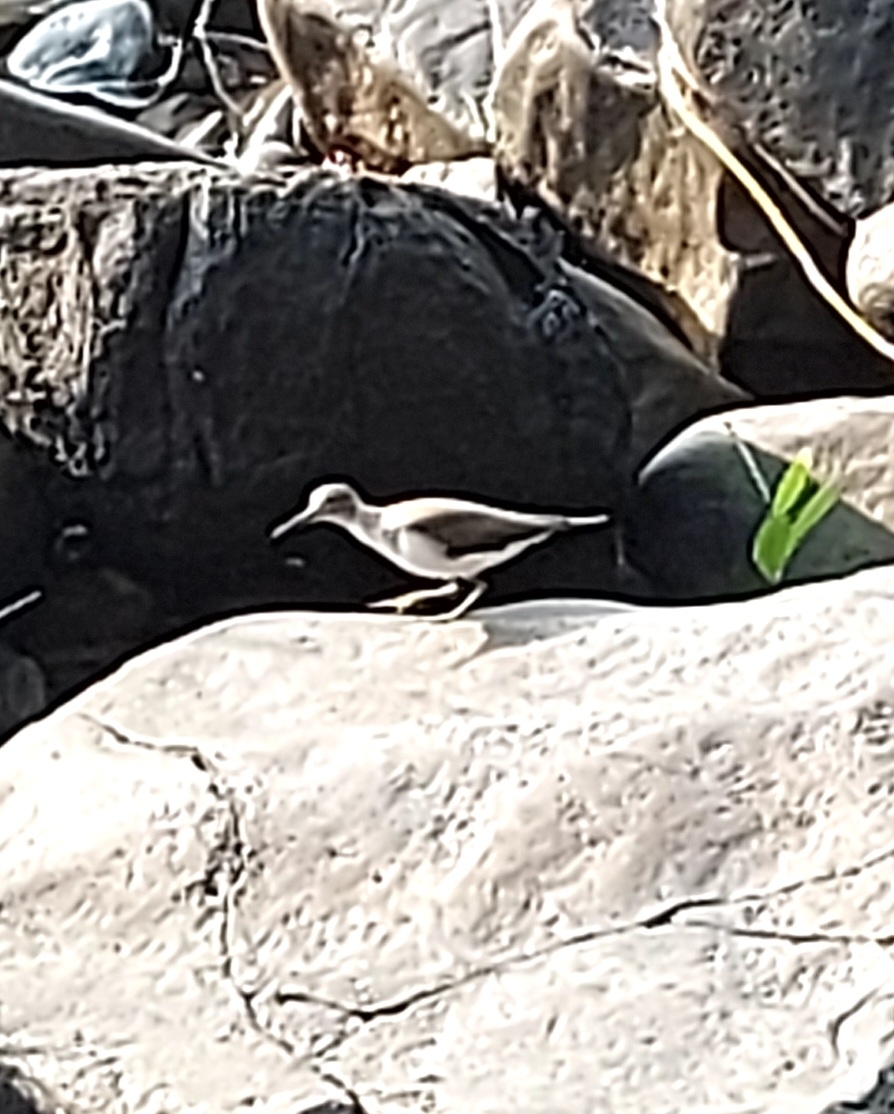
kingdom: Animalia
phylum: Chordata
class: Aves
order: Charadriiformes
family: Scolopacidae
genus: Actitis
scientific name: Actitis hypoleucos
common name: Common sandpiper
